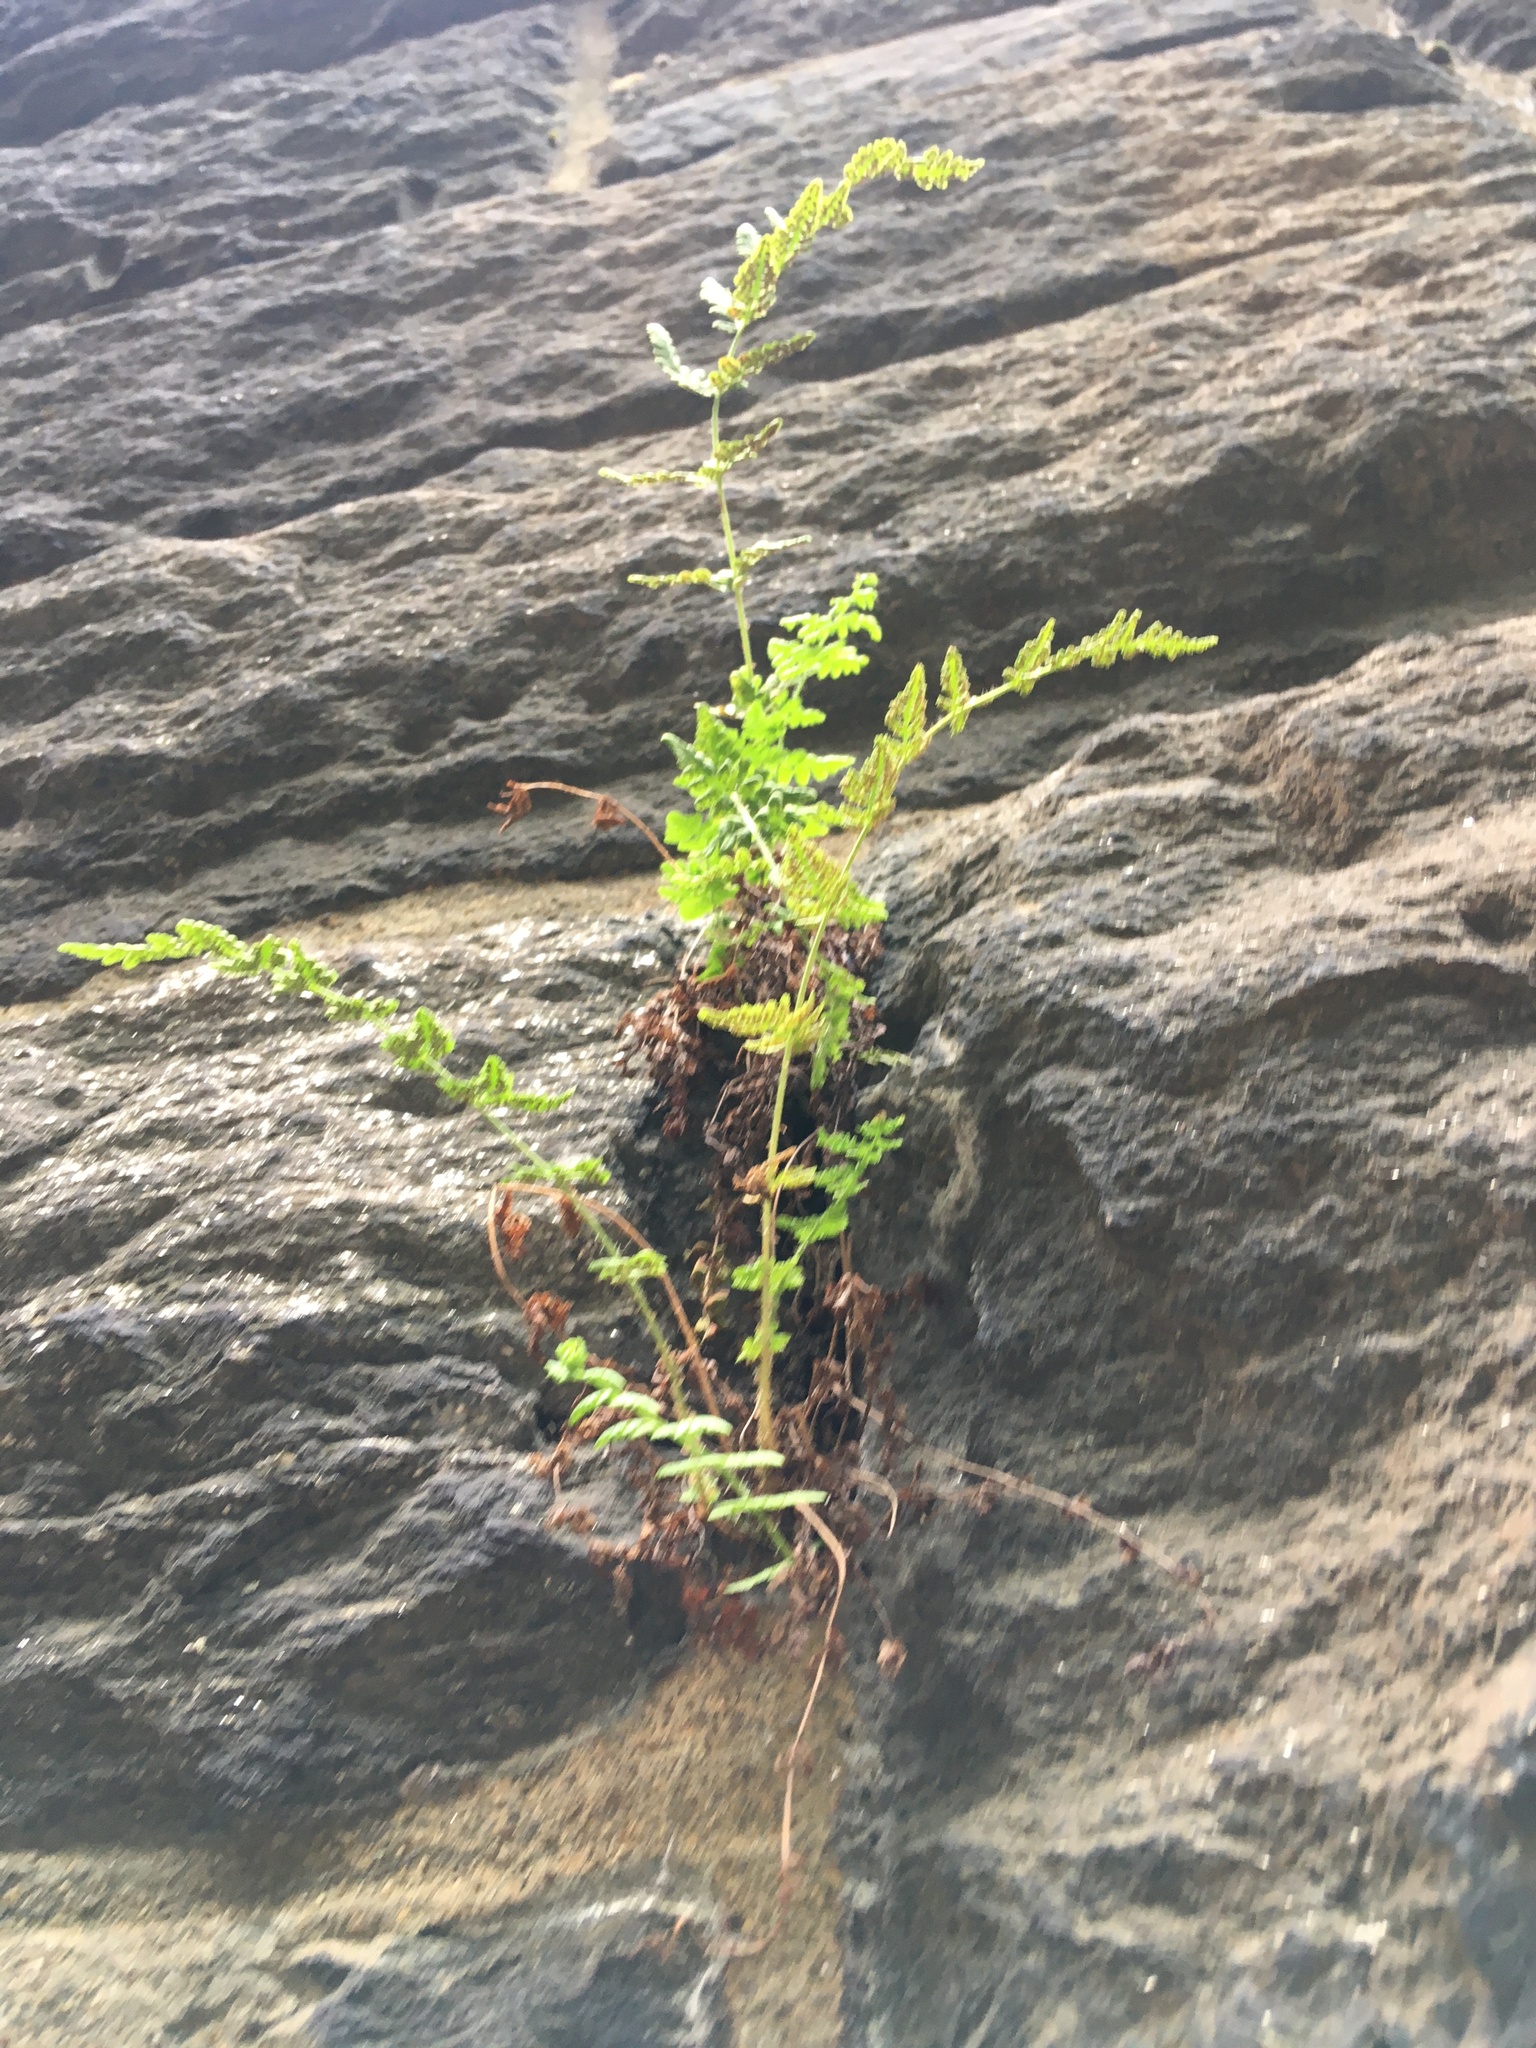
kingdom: Plantae
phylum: Tracheophyta
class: Polypodiopsida
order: Polypodiales
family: Woodsiaceae
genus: Physematium
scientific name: Physematium obtusum
